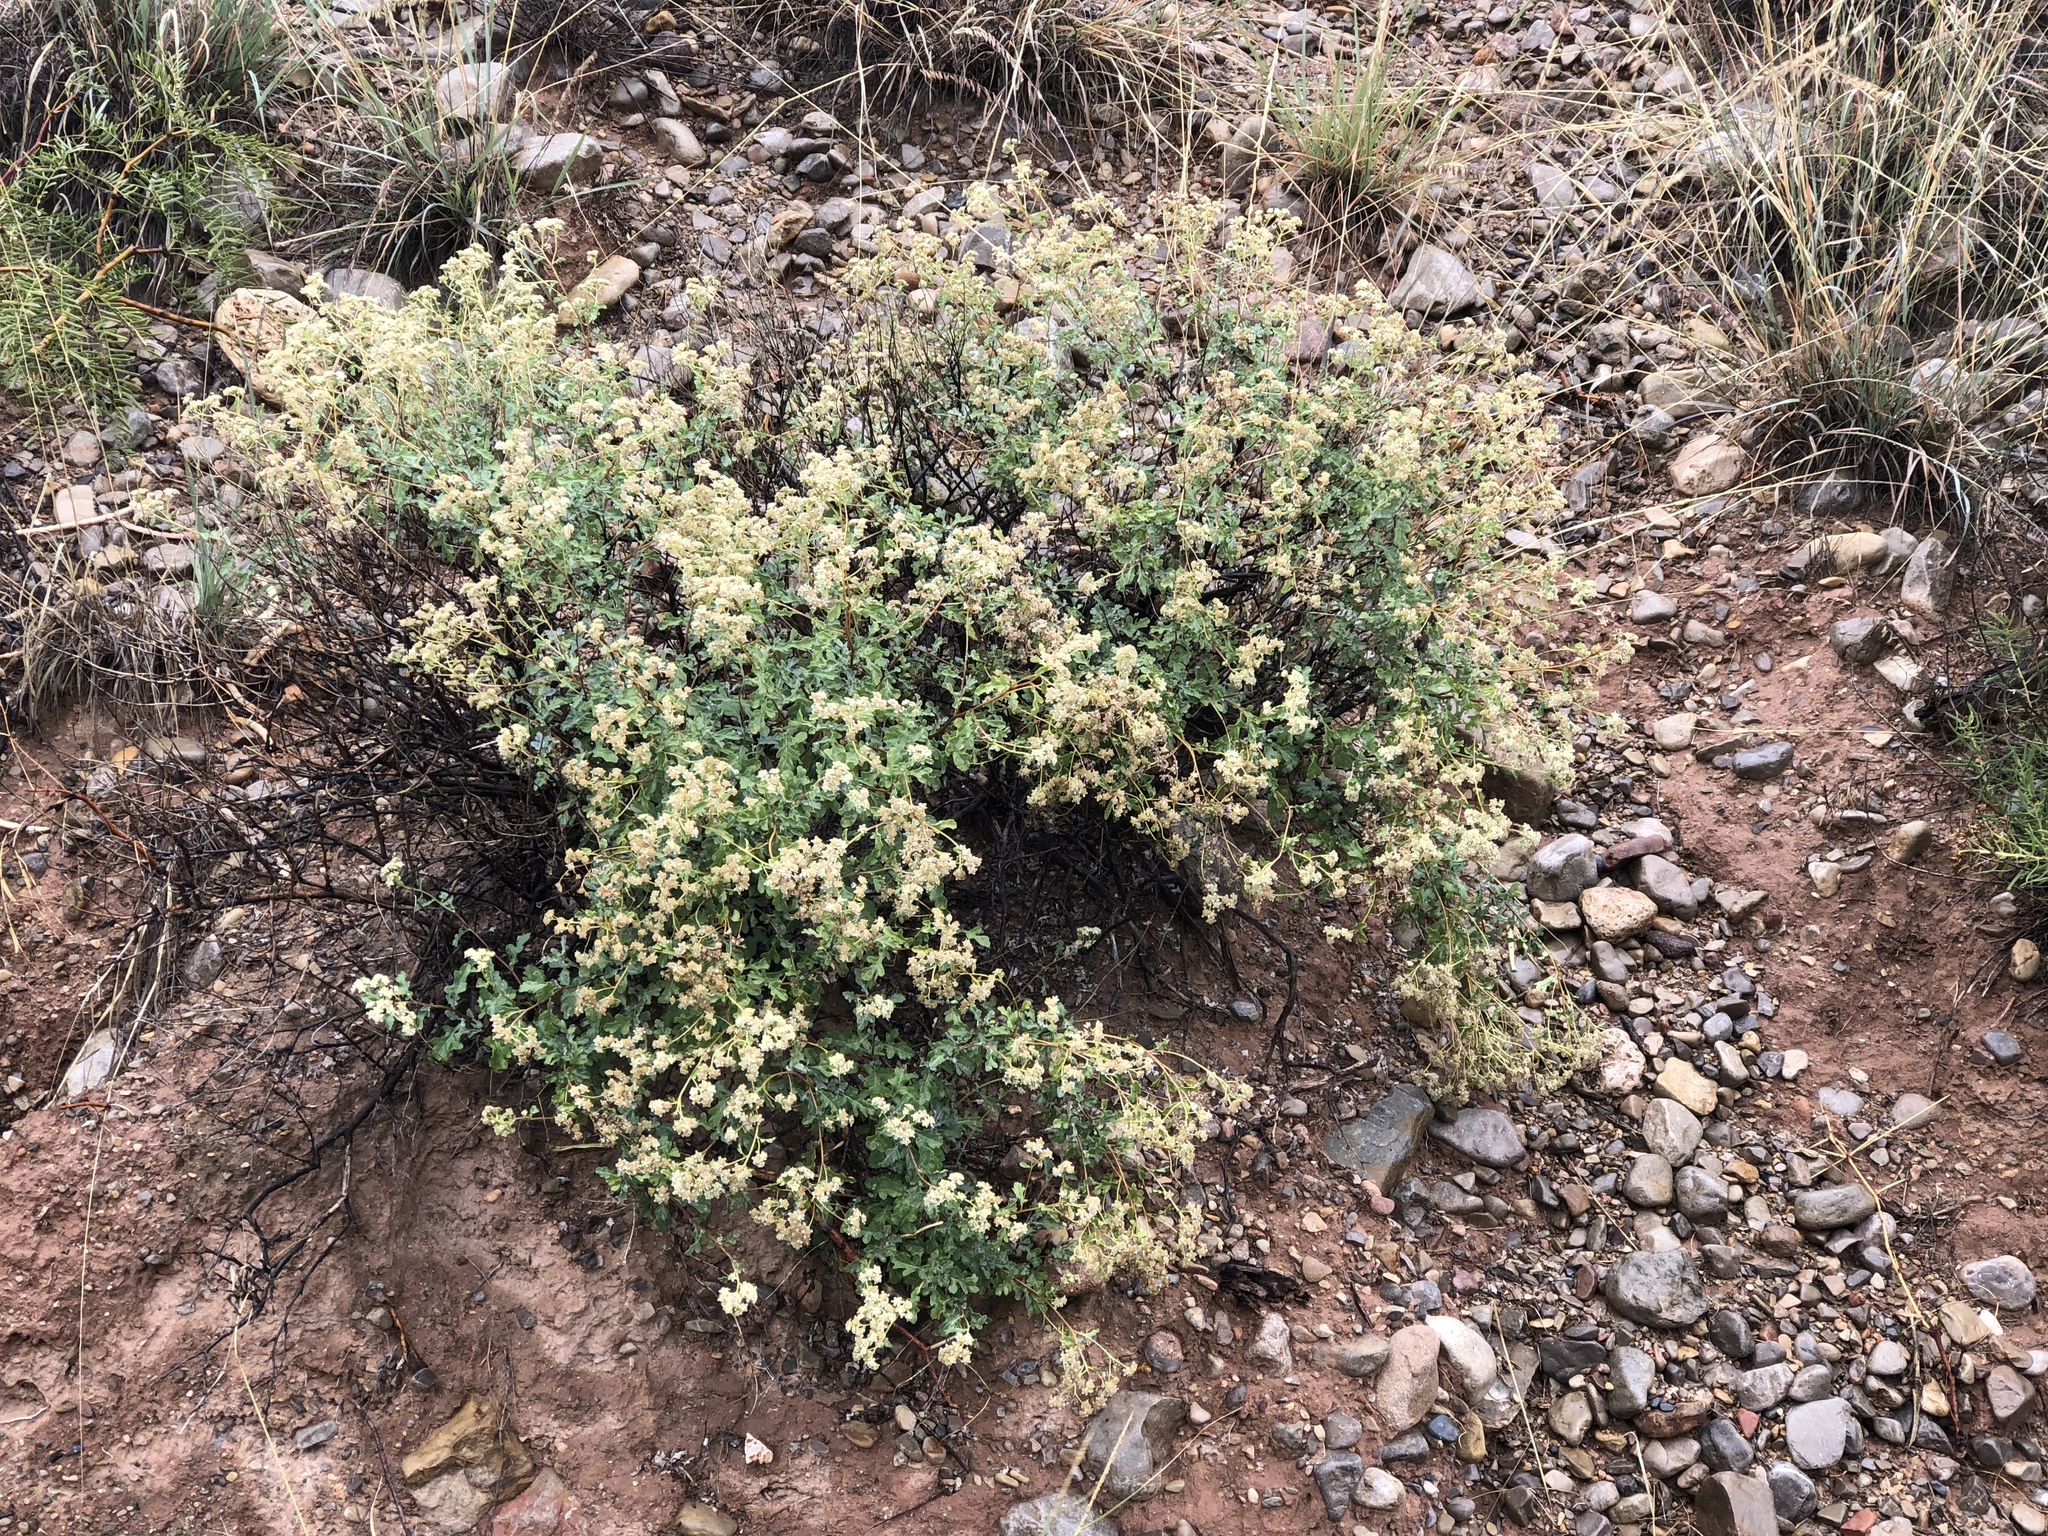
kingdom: Plantae
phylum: Tracheophyta
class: Magnoliopsida
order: Asterales
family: Asteraceae
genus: Parthenium
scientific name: Parthenium incanum
